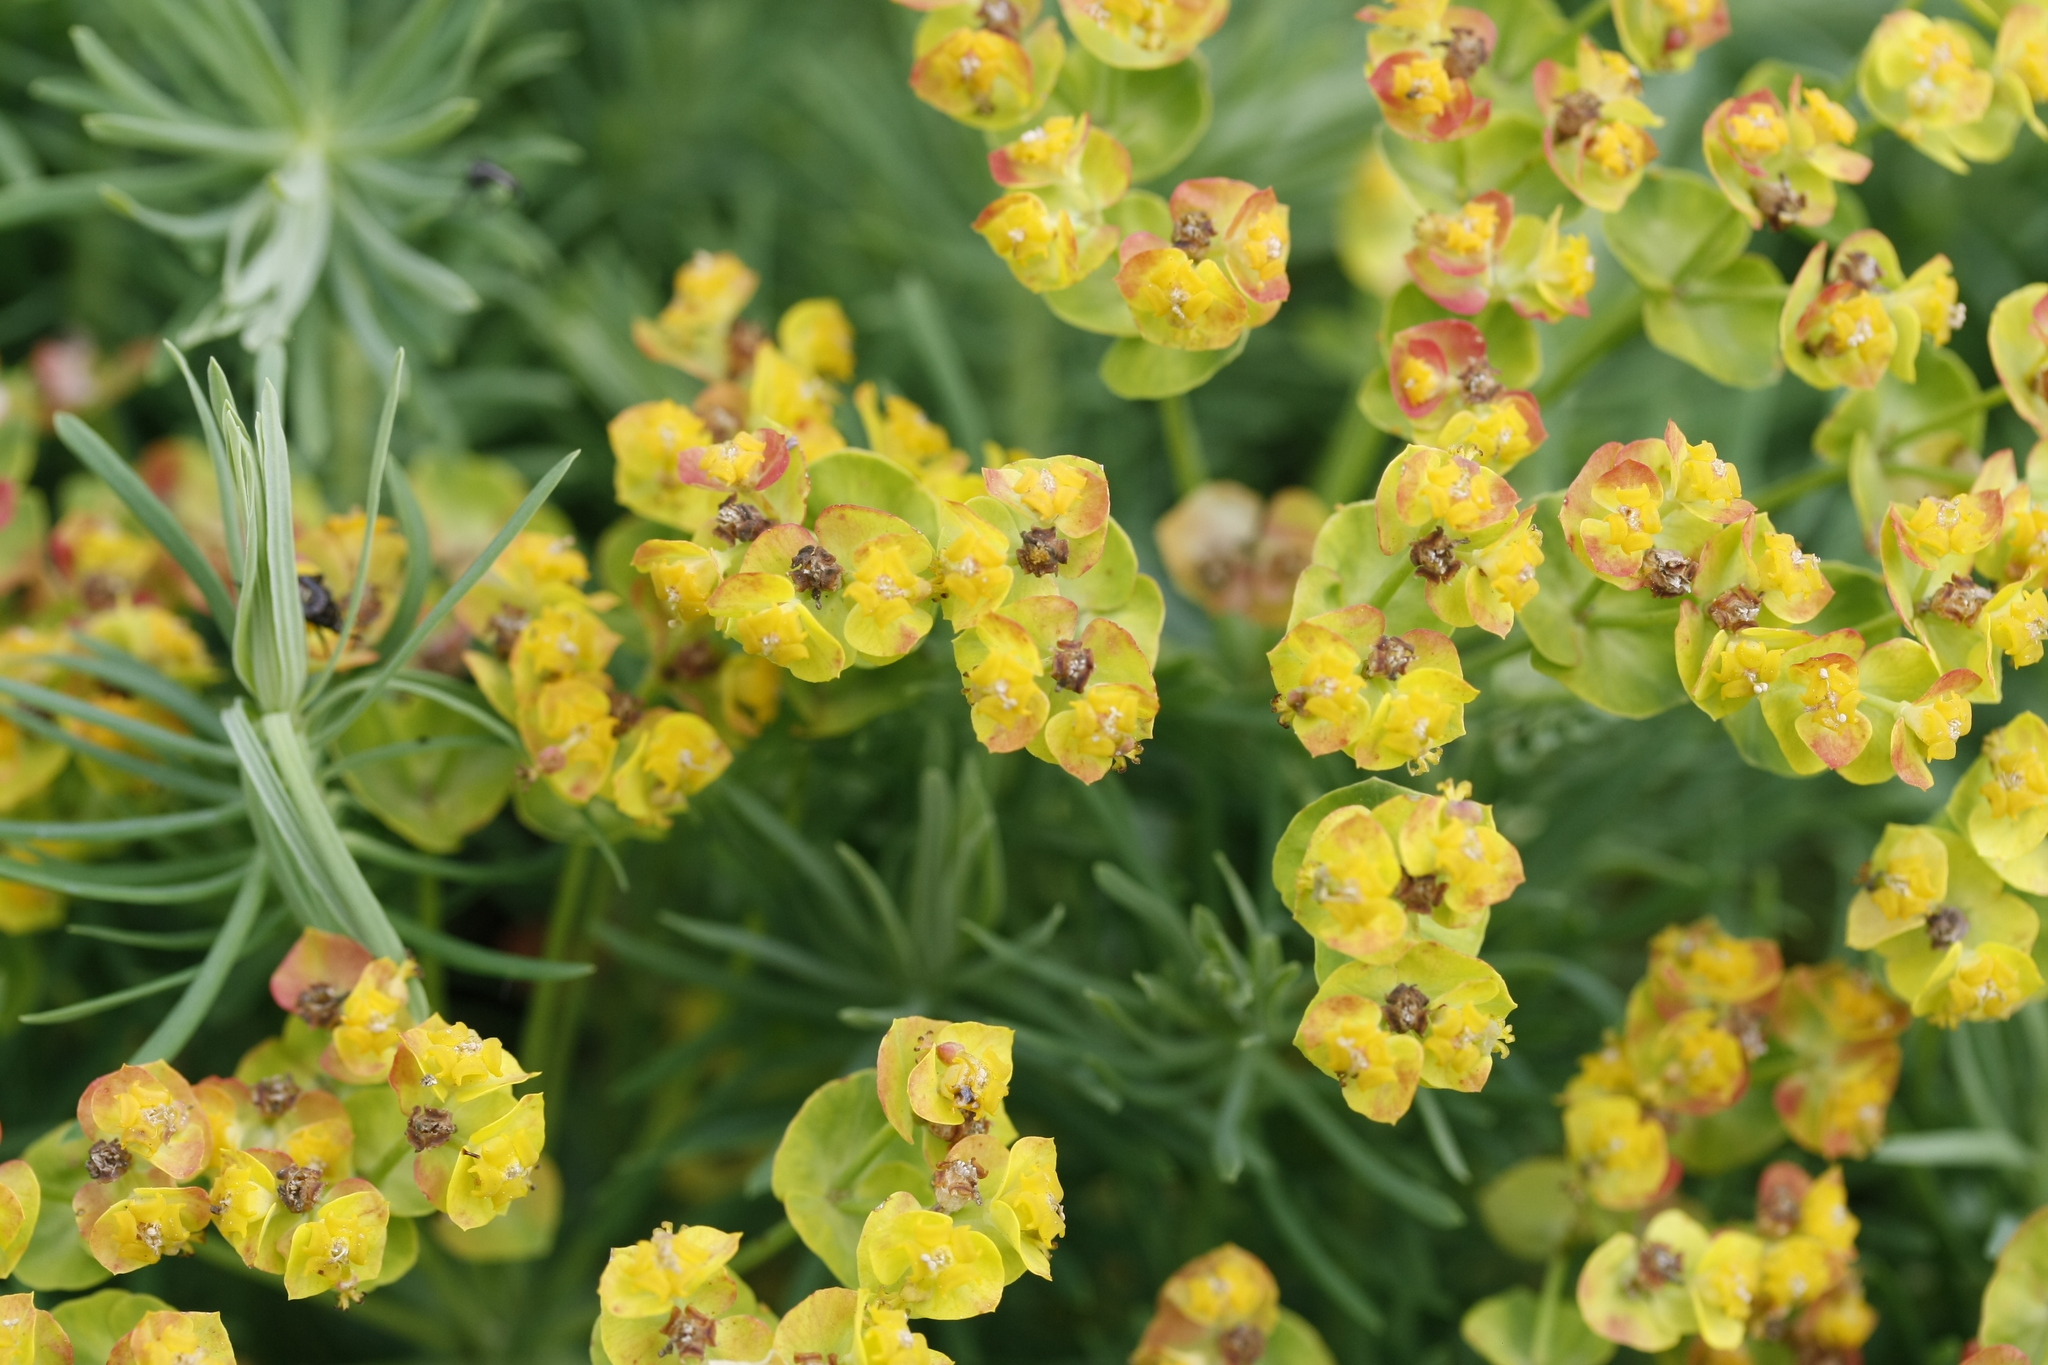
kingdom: Plantae
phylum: Tracheophyta
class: Magnoliopsida
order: Malpighiales
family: Euphorbiaceae
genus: Euphorbia
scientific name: Euphorbia cyparissias
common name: Cypress spurge
